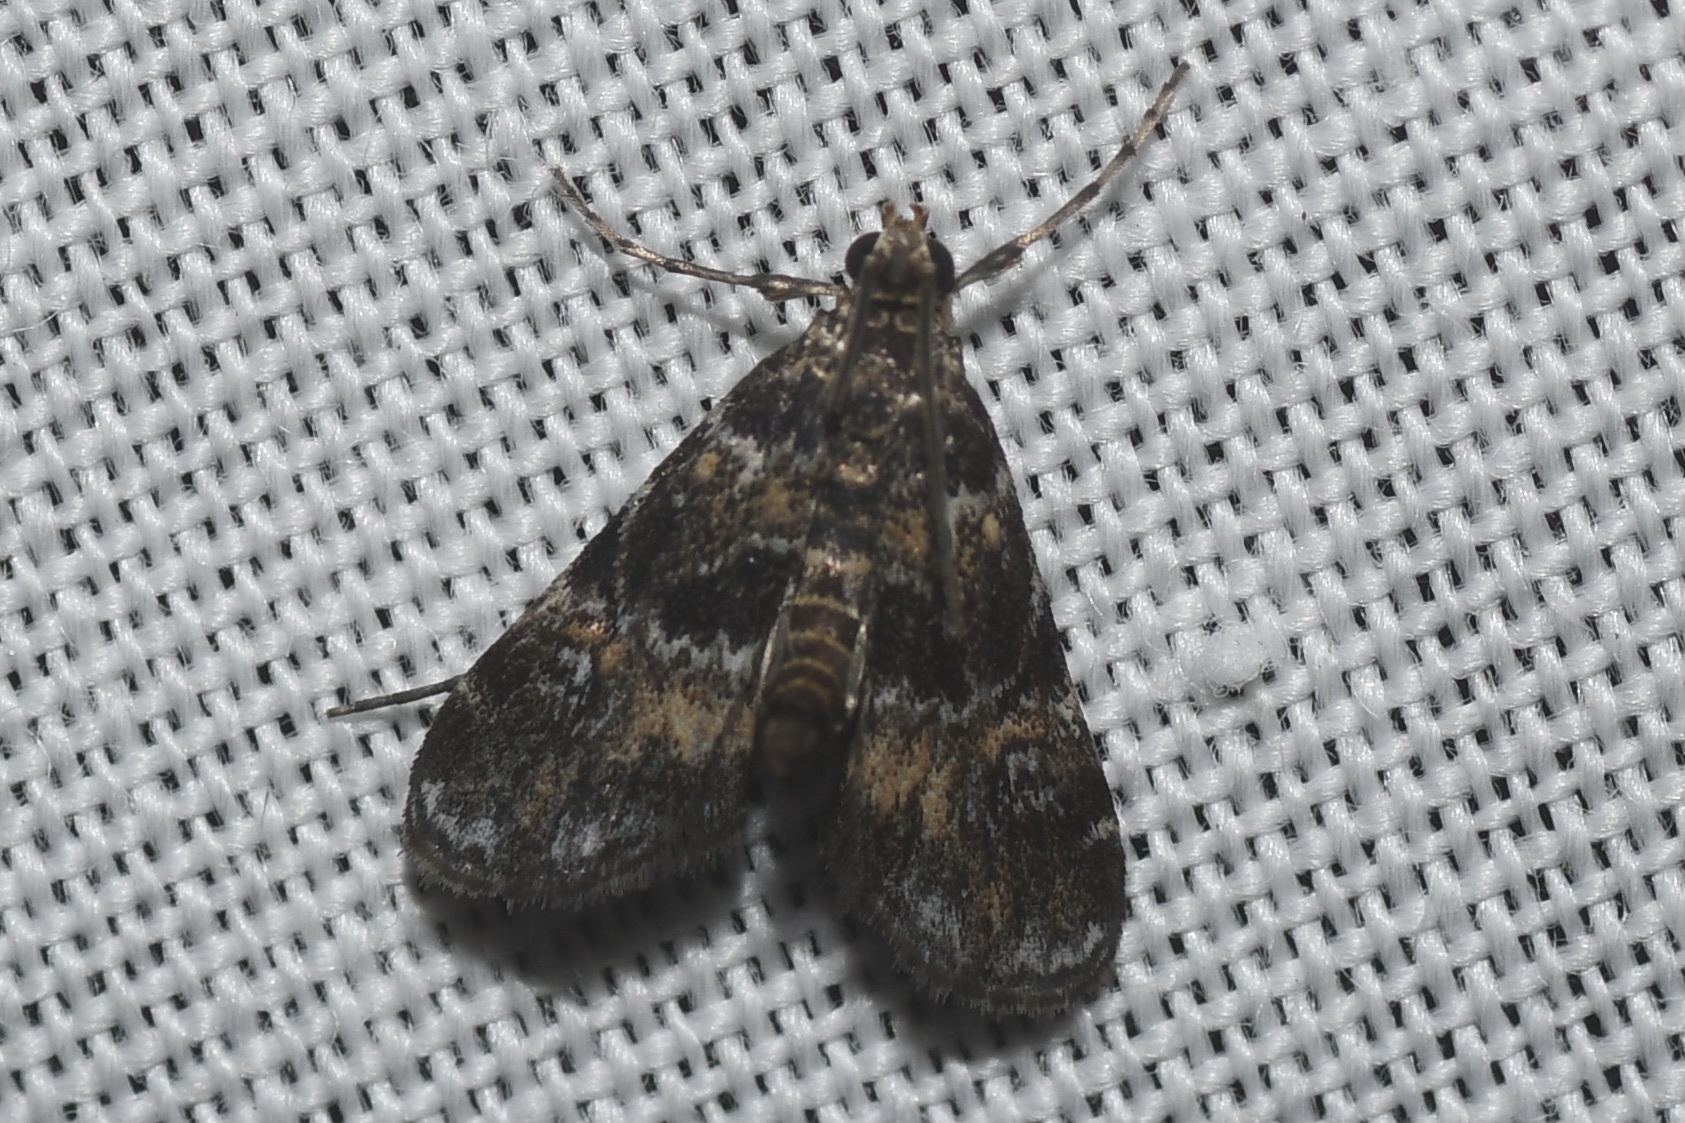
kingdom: Animalia
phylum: Arthropoda
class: Insecta
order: Lepidoptera
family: Crambidae
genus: Elophila
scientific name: Elophila obliteralis
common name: Waterlily leafcutter moth
